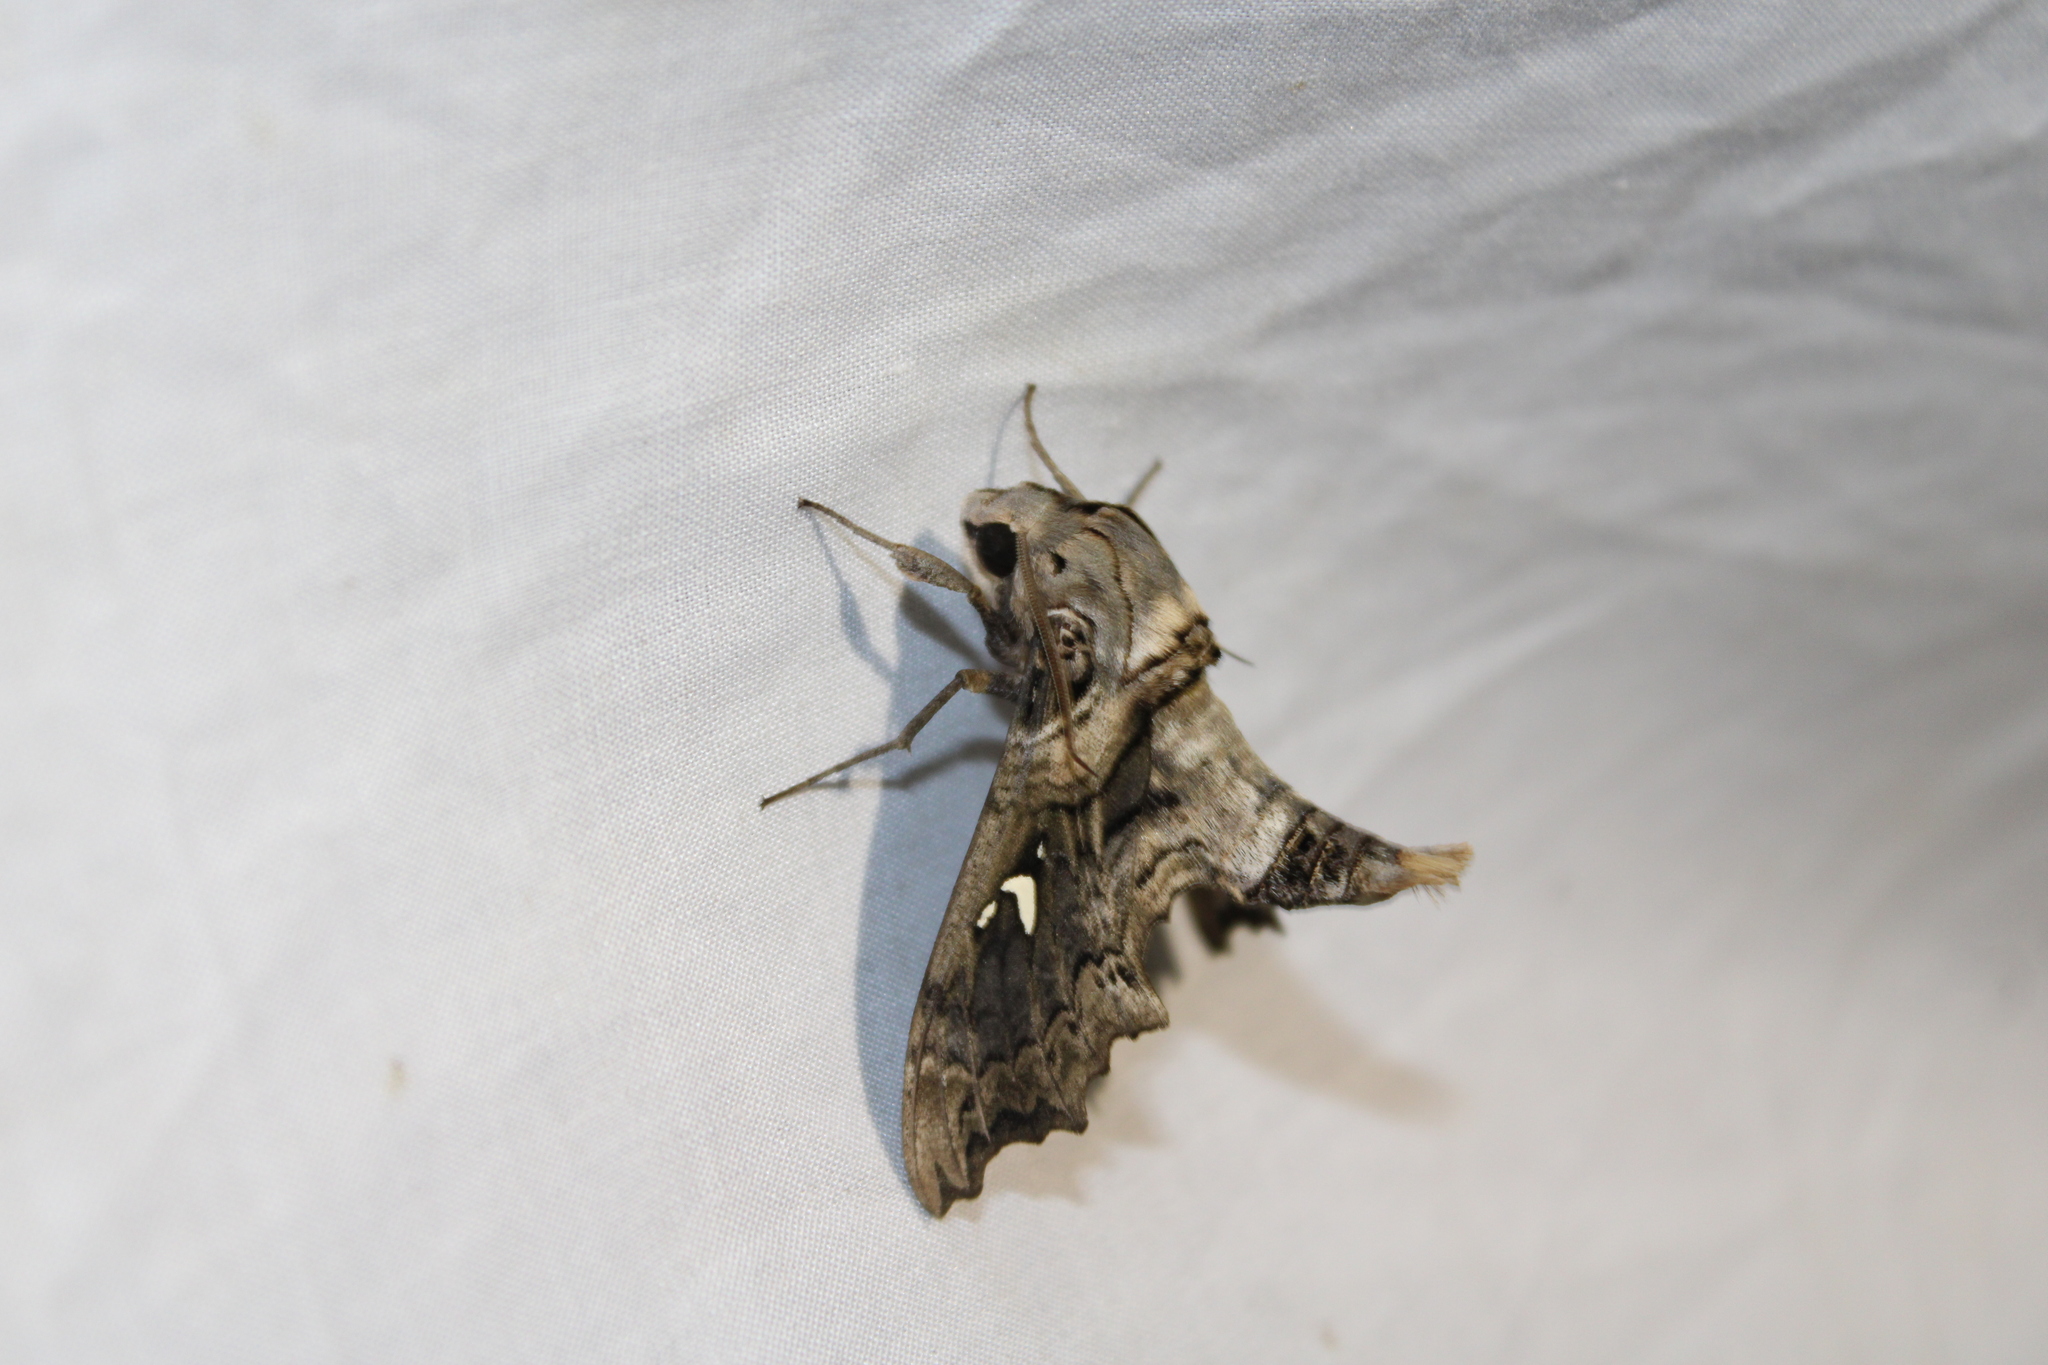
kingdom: Animalia
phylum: Arthropoda
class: Insecta
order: Lepidoptera
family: Sphingidae
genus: Madoryx
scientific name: Madoryx pseudothyreus
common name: False-windowed sphinx
